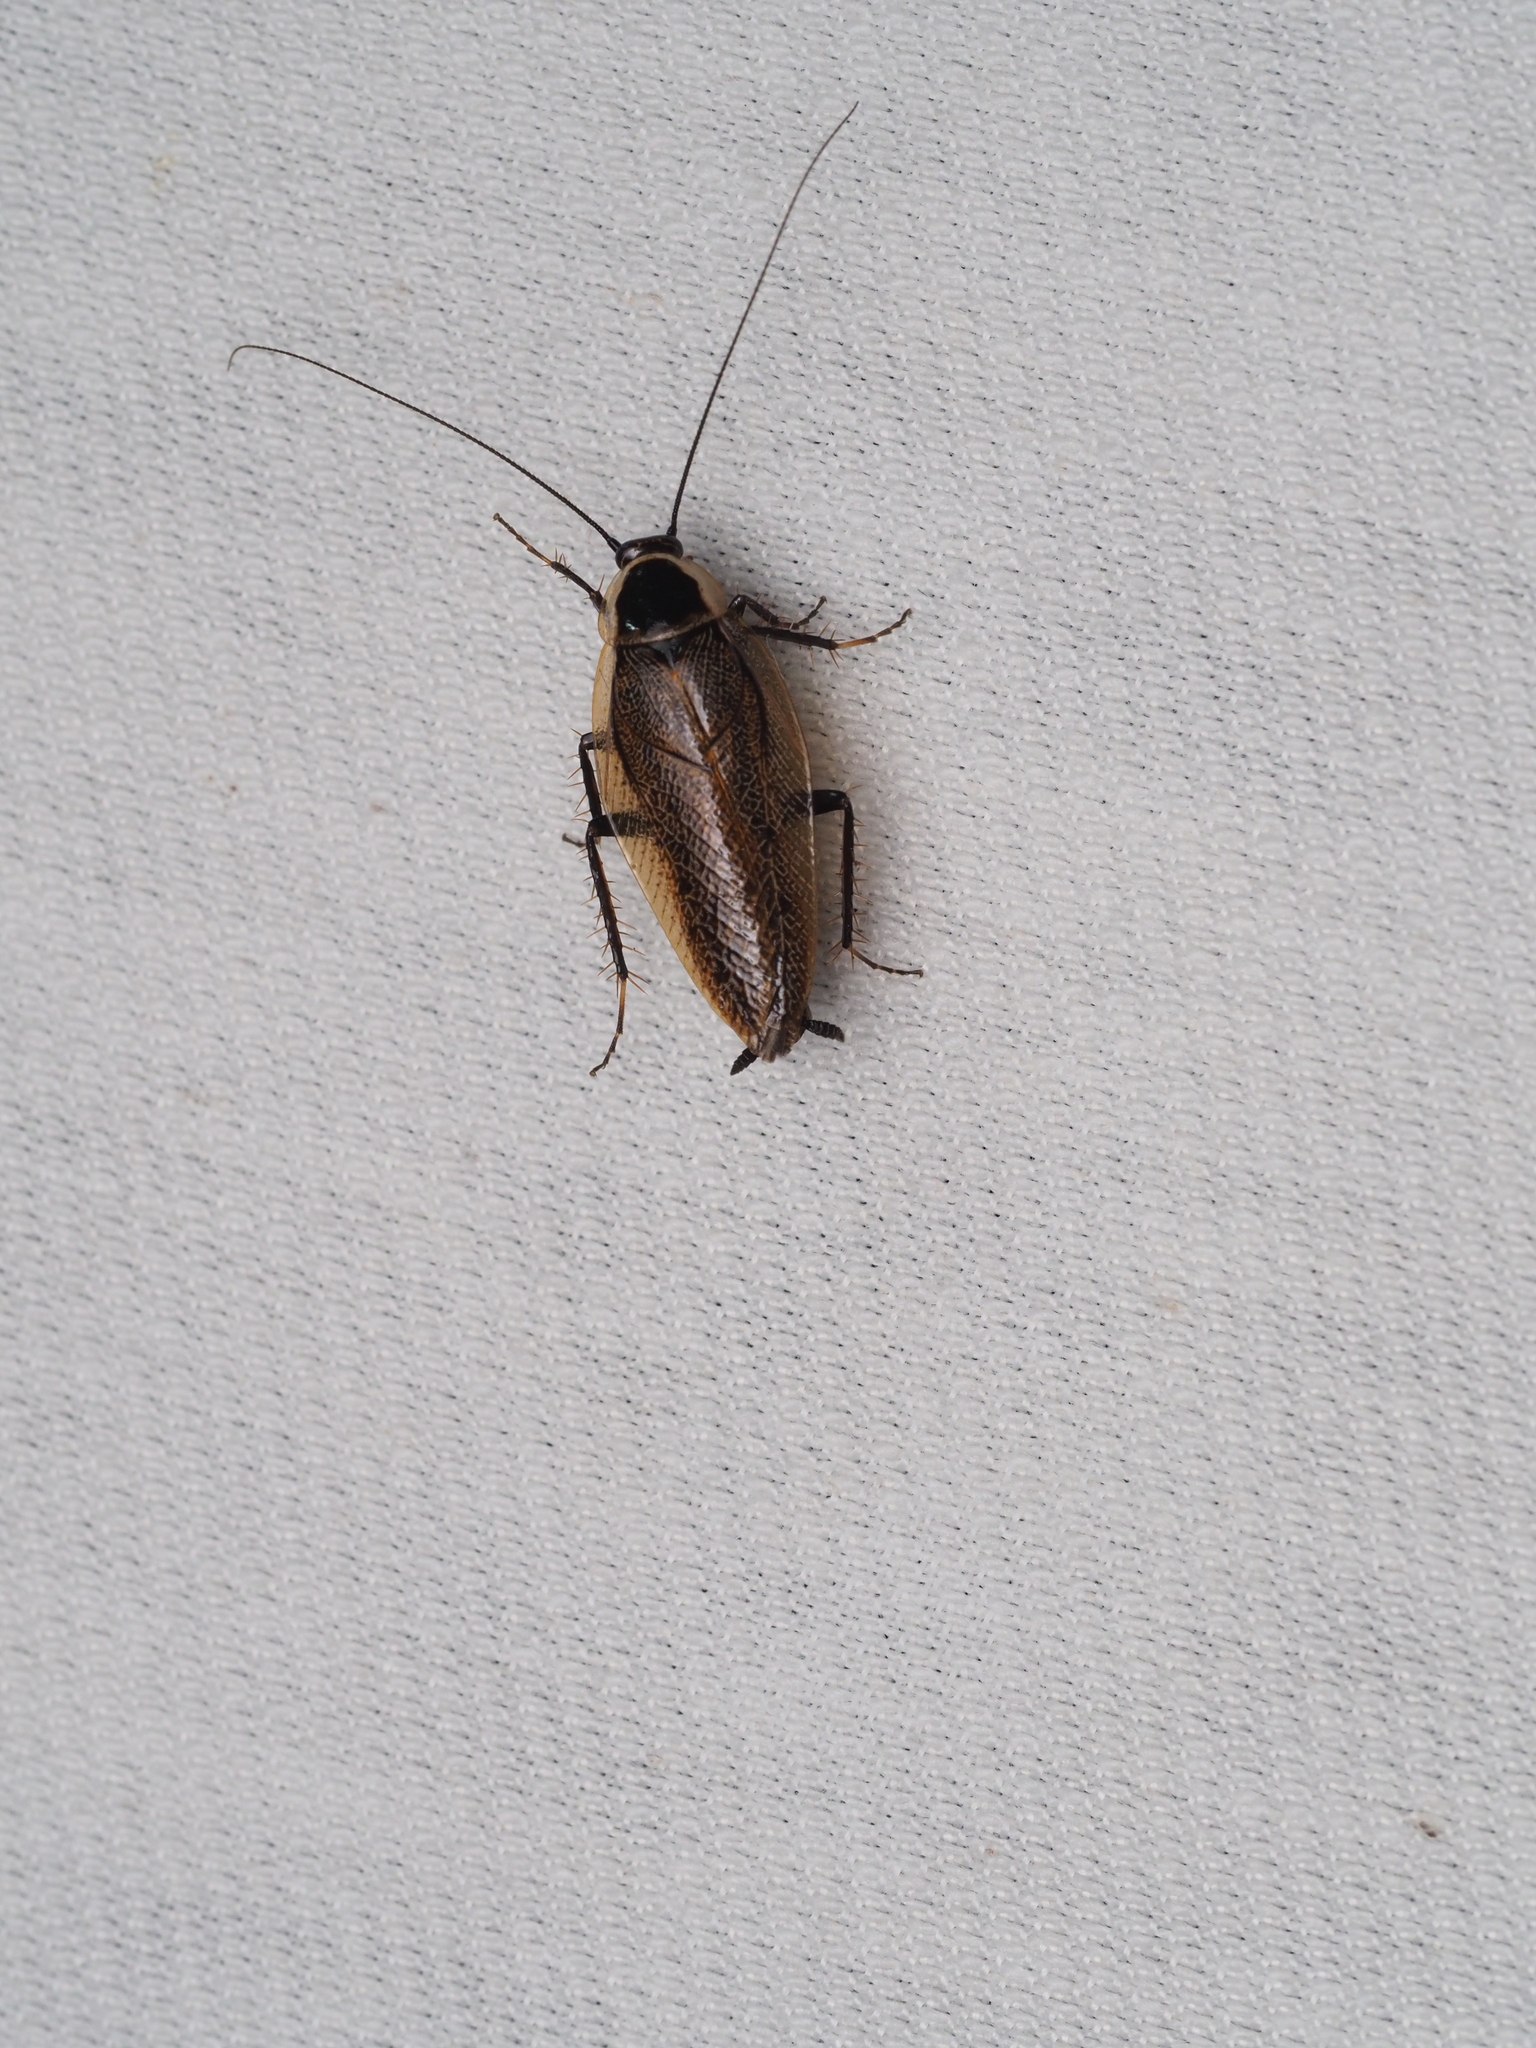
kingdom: Animalia
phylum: Arthropoda
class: Insecta
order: Blattodea
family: Ectobiidae
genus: Ectobius
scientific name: Ectobius sylvestris
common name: Forest cockroach
